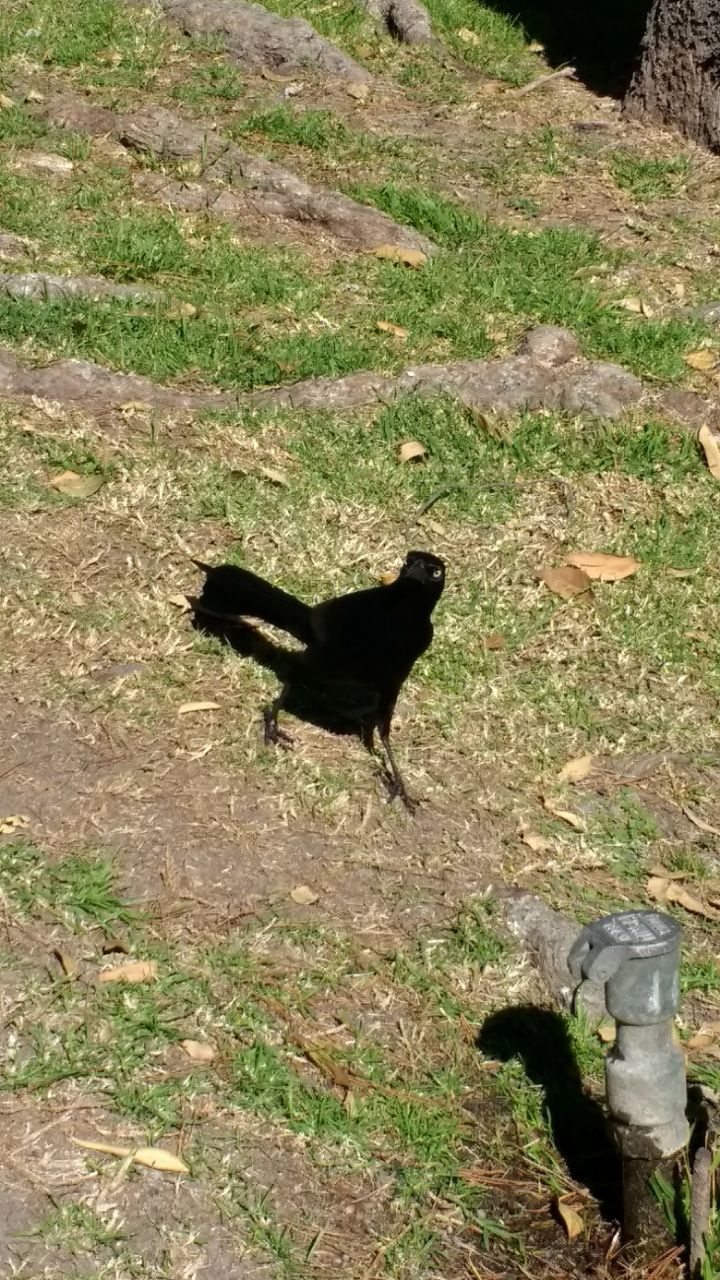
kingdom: Animalia
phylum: Chordata
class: Aves
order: Passeriformes
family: Icteridae
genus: Quiscalus
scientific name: Quiscalus mexicanus
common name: Great-tailed grackle
